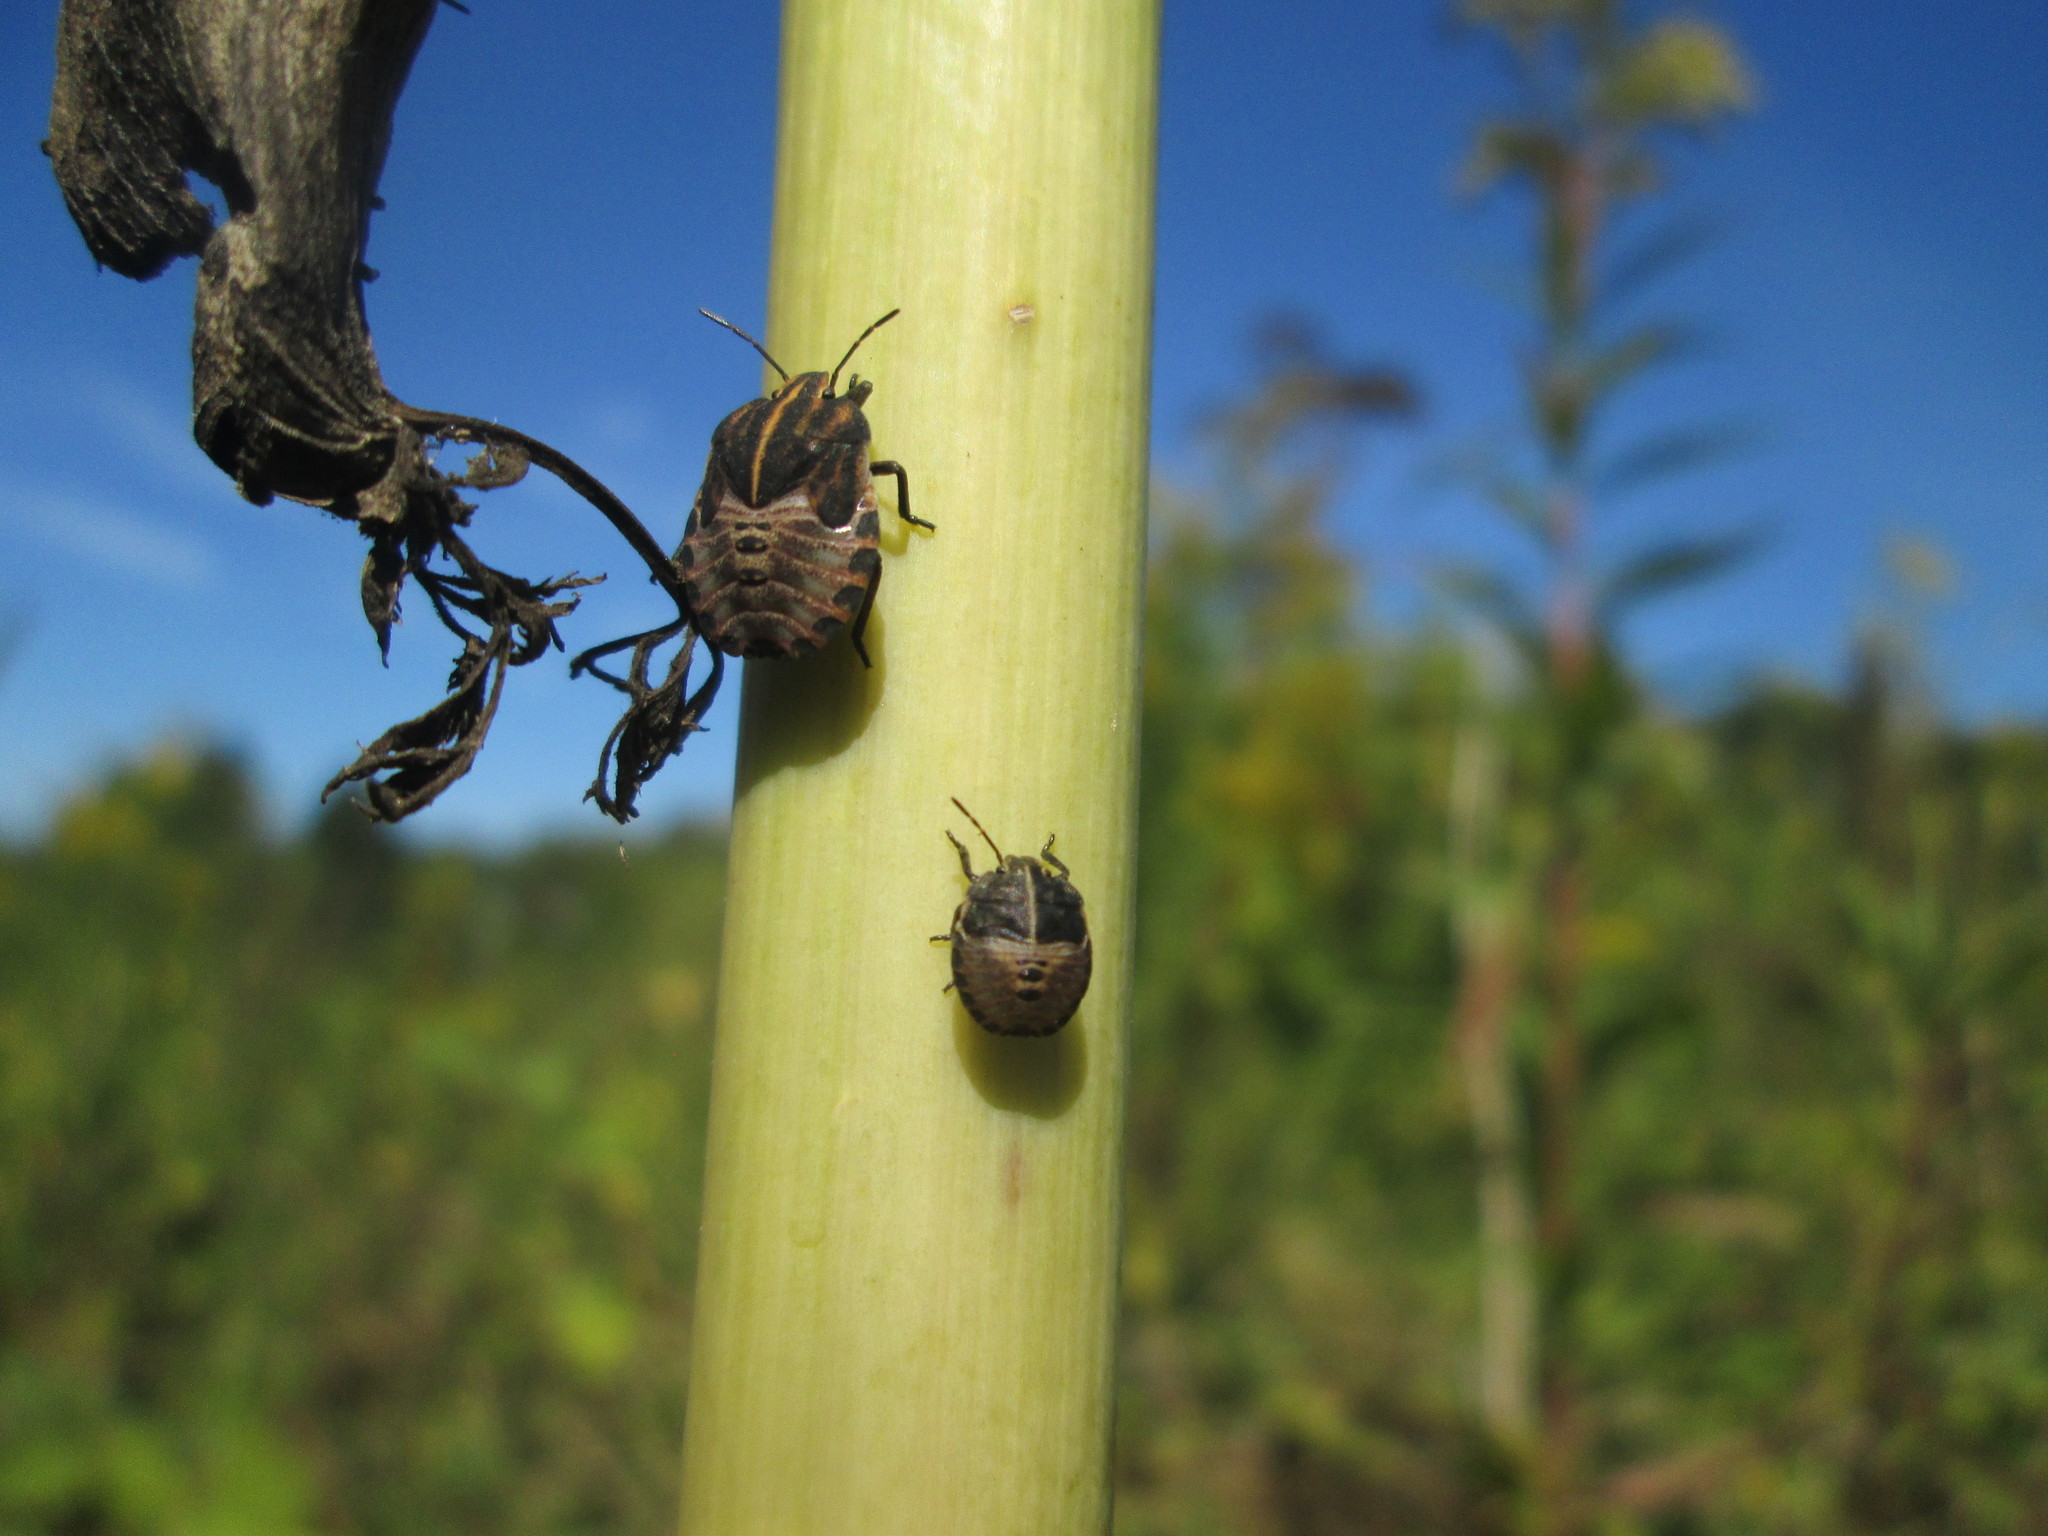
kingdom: Animalia
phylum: Arthropoda
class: Insecta
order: Hemiptera
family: Pentatomidae
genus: Graphosoma
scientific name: Graphosoma italicum
